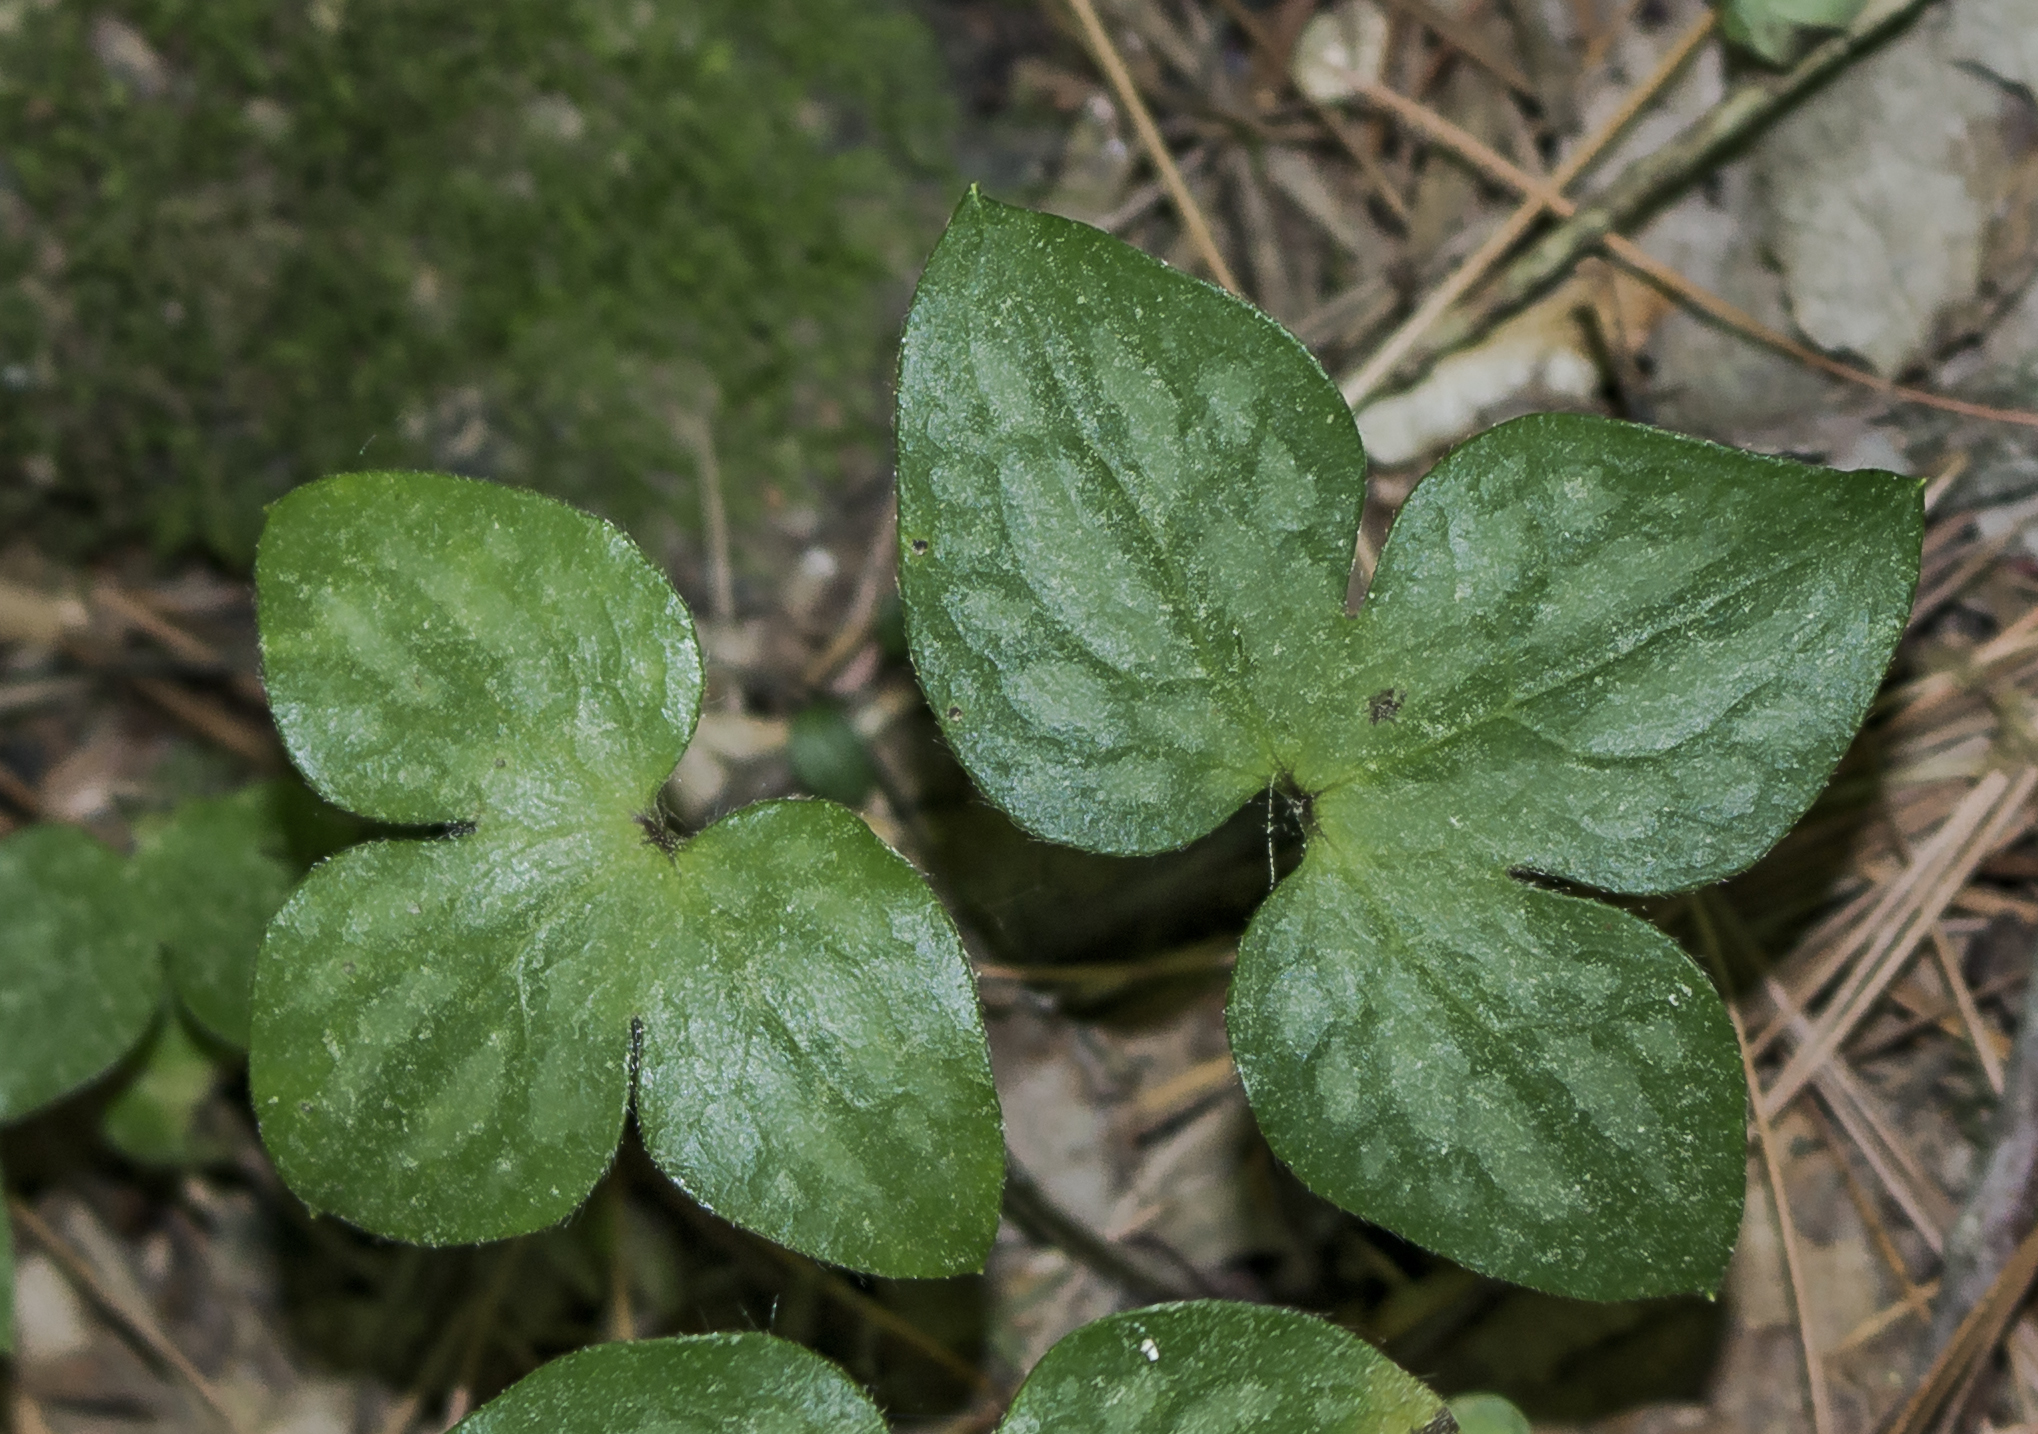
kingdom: Plantae
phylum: Tracheophyta
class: Magnoliopsida
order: Ranunculales
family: Ranunculaceae
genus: Hepatica
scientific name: Hepatica acutiloba
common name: Sharp-lobed hepatica
